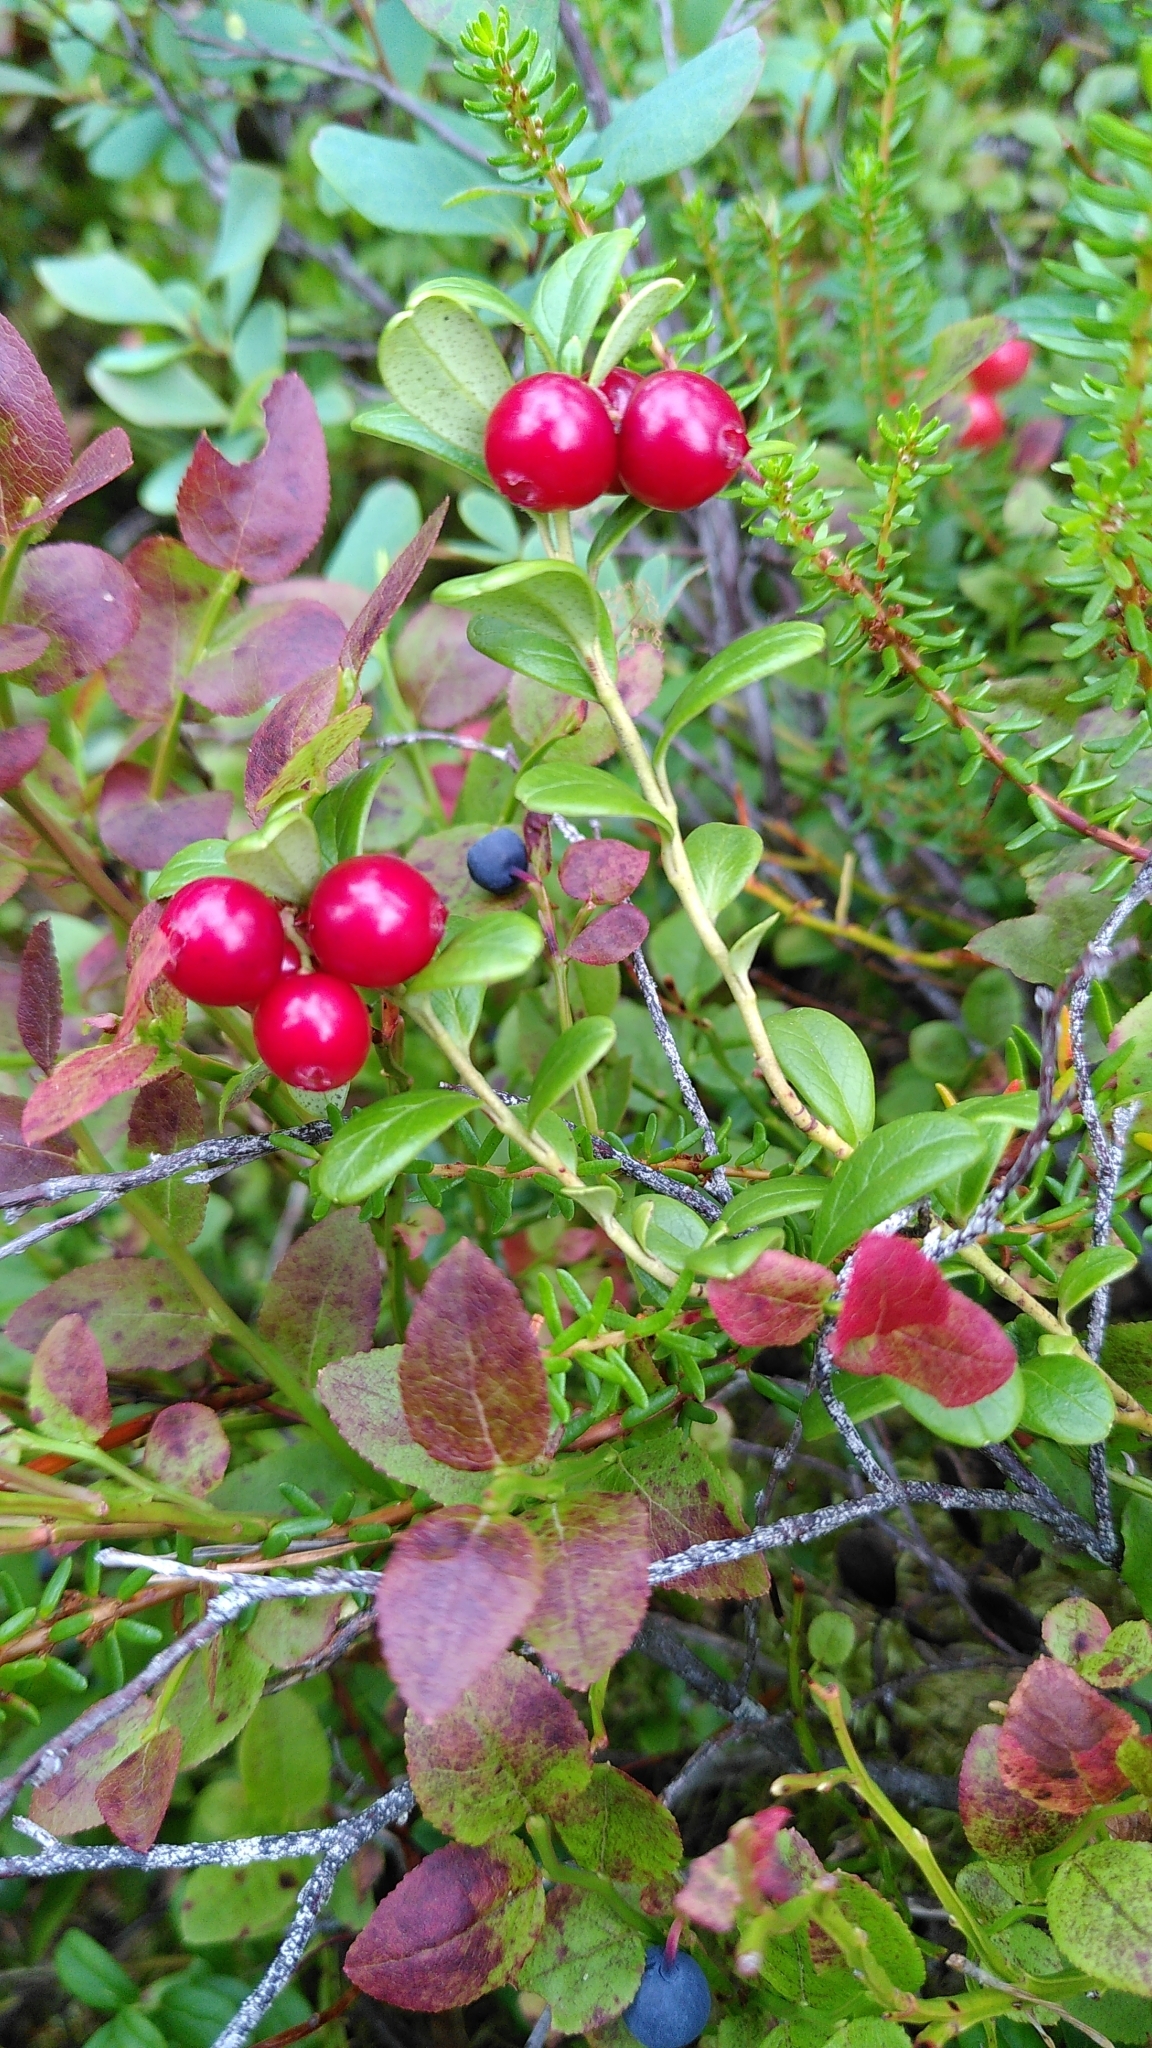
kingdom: Plantae
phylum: Tracheophyta
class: Magnoliopsida
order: Ericales
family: Ericaceae
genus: Vaccinium
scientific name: Vaccinium vitis-idaea
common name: Cowberry
